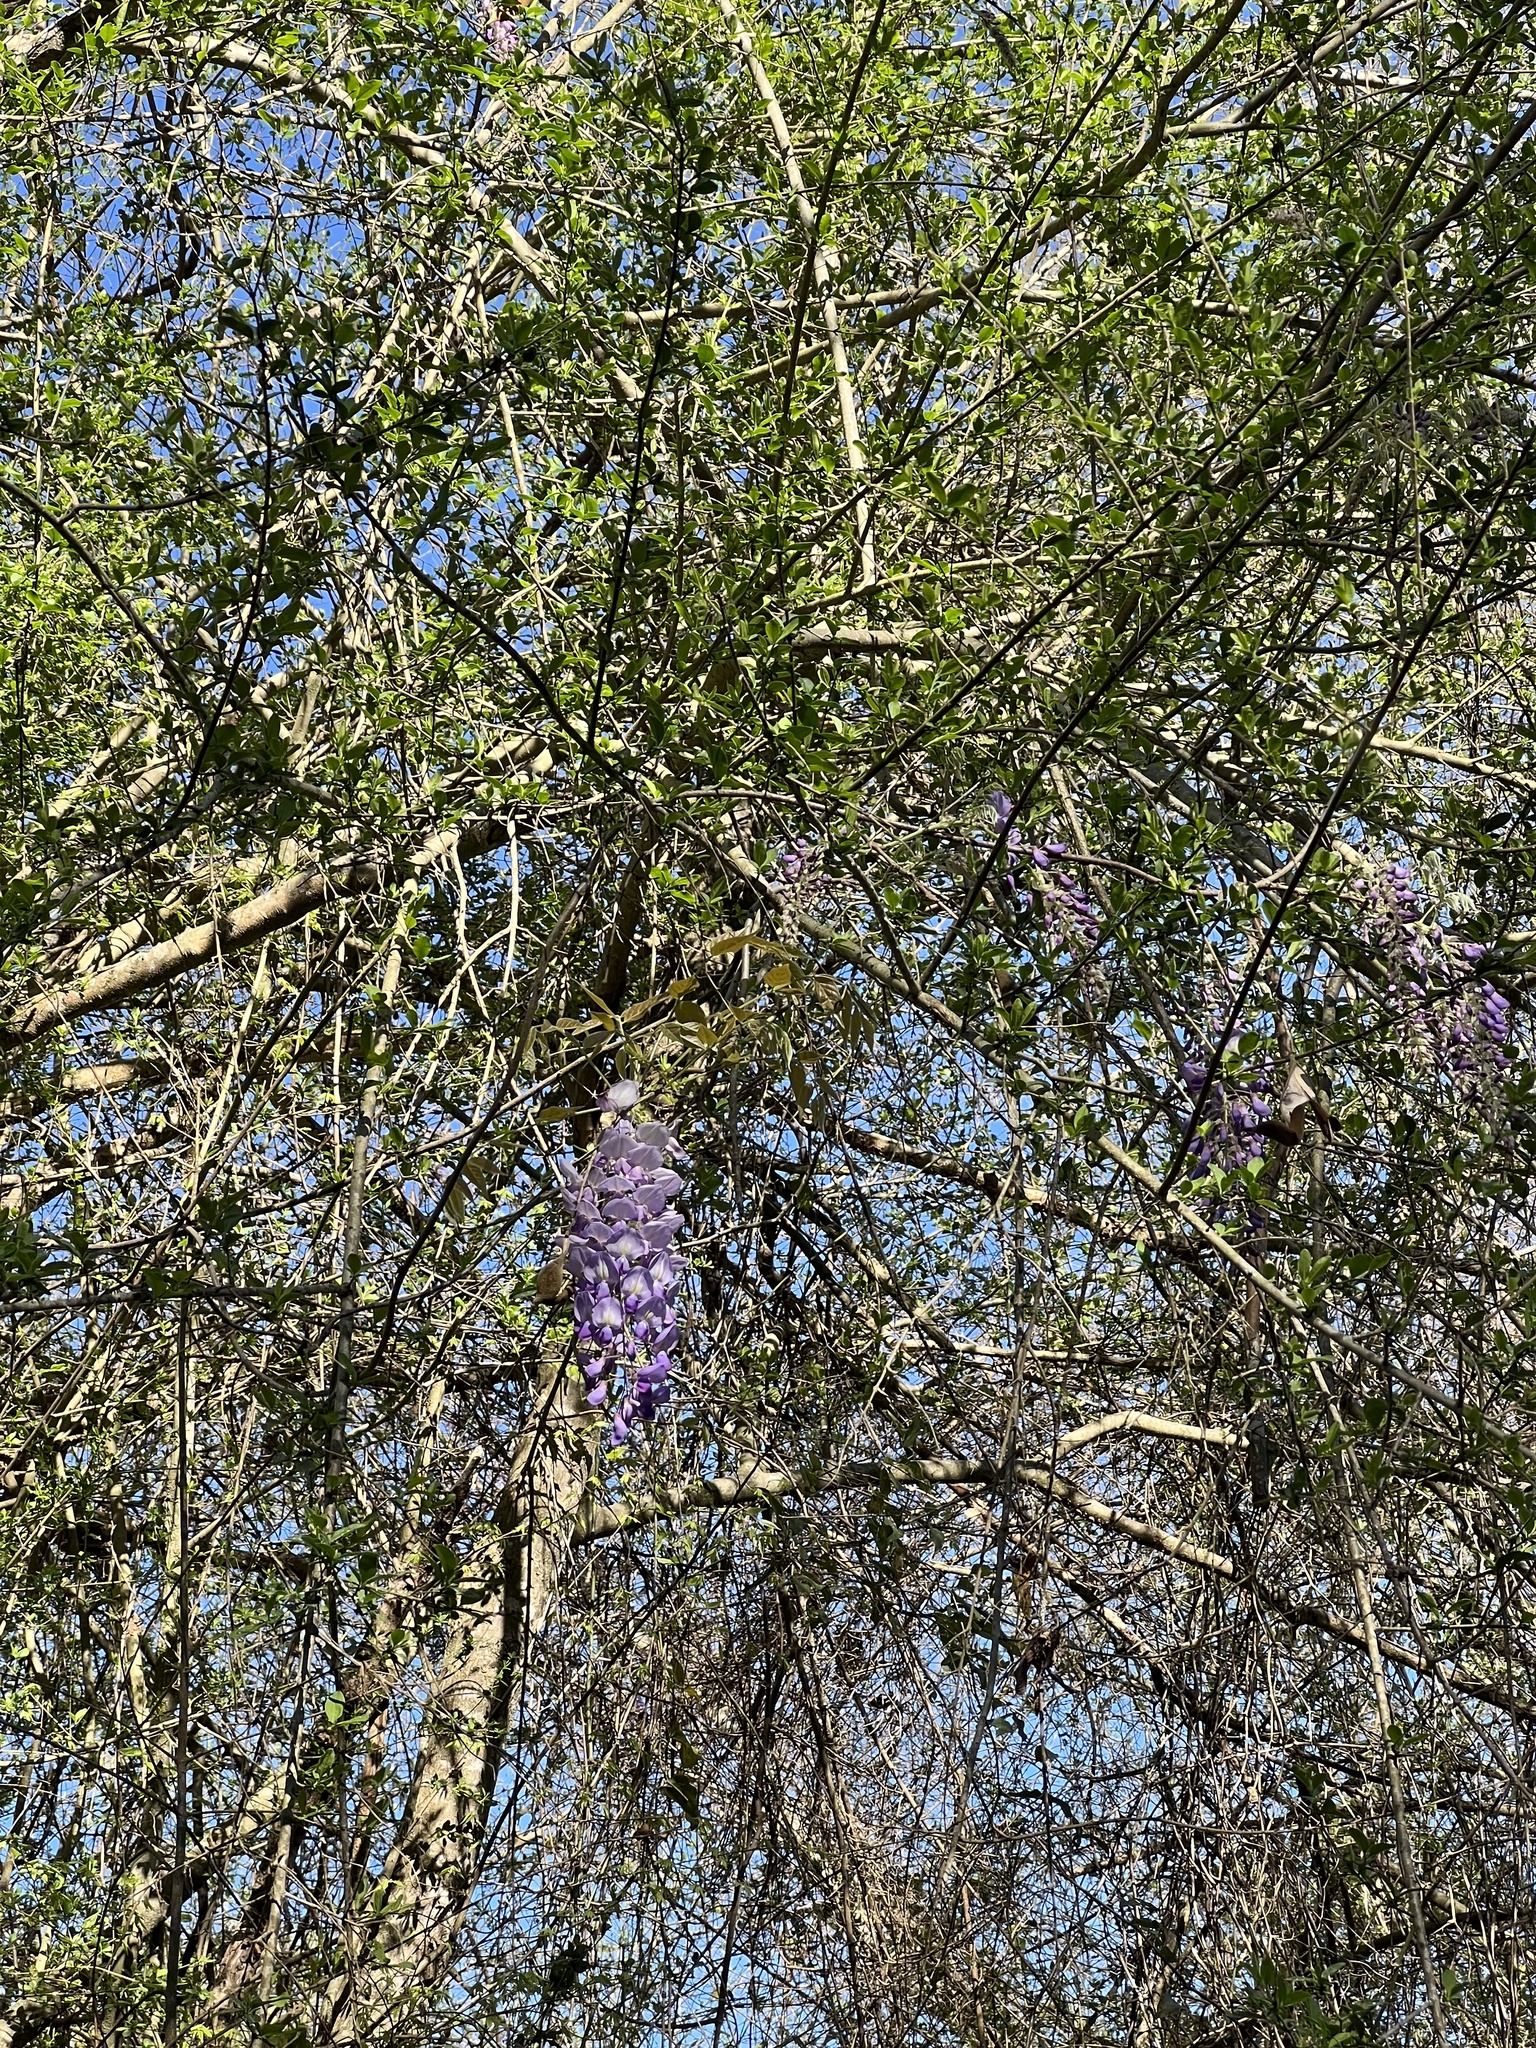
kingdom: Plantae
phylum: Tracheophyta
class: Magnoliopsida
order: Fabales
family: Fabaceae
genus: Wisteria
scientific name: Wisteria sinensis
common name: Chinese wisteria
